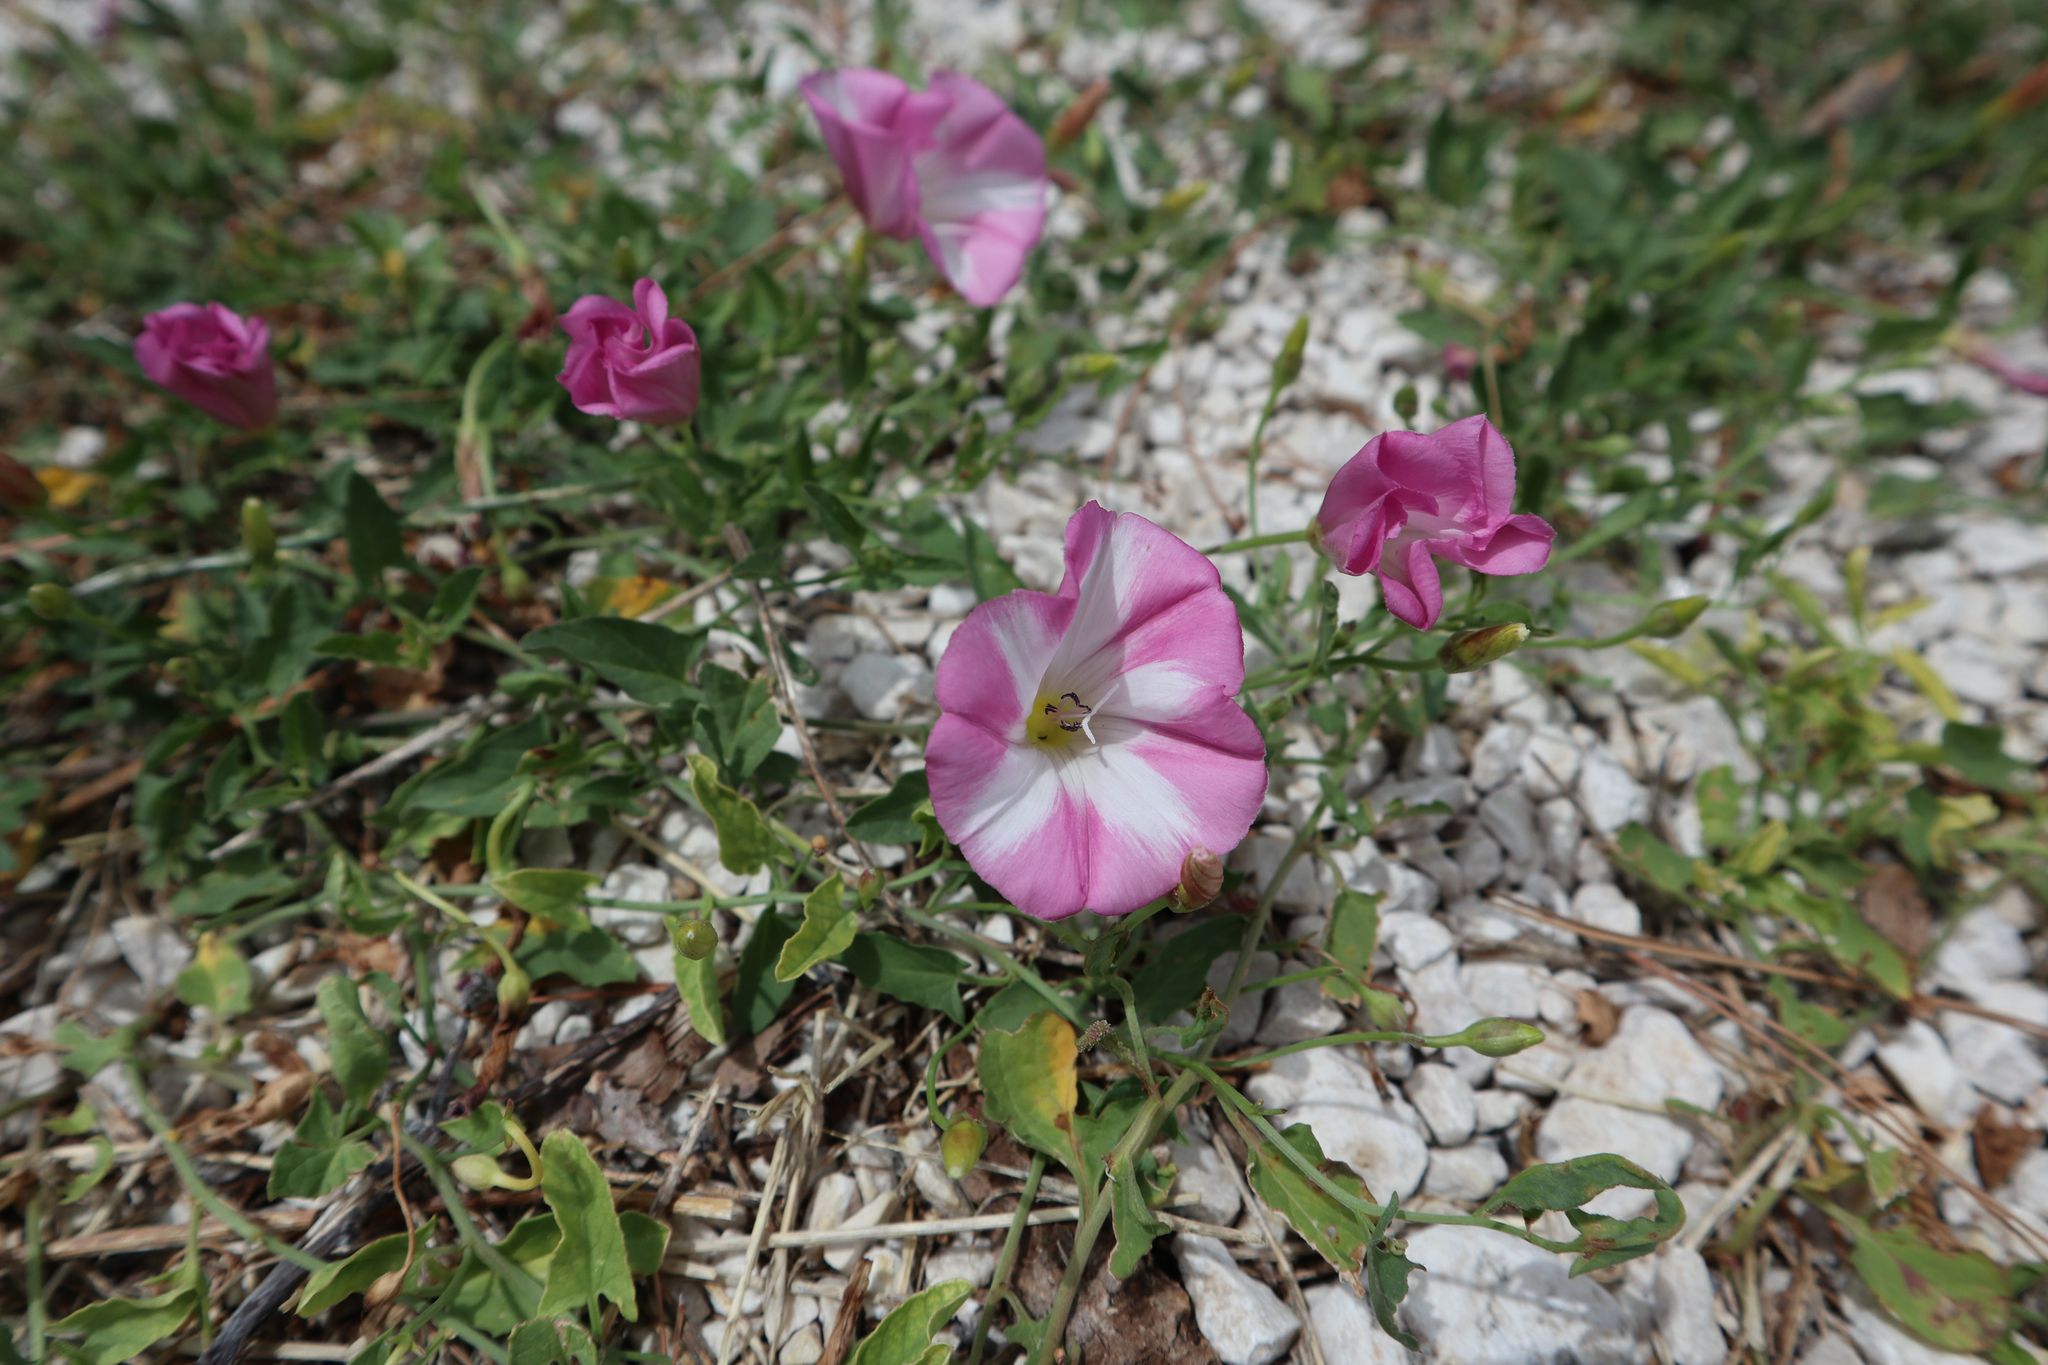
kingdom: Plantae
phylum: Tracheophyta
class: Magnoliopsida
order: Solanales
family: Convolvulaceae
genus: Convolvulus
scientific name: Convolvulus arvensis
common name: Field bindweed
